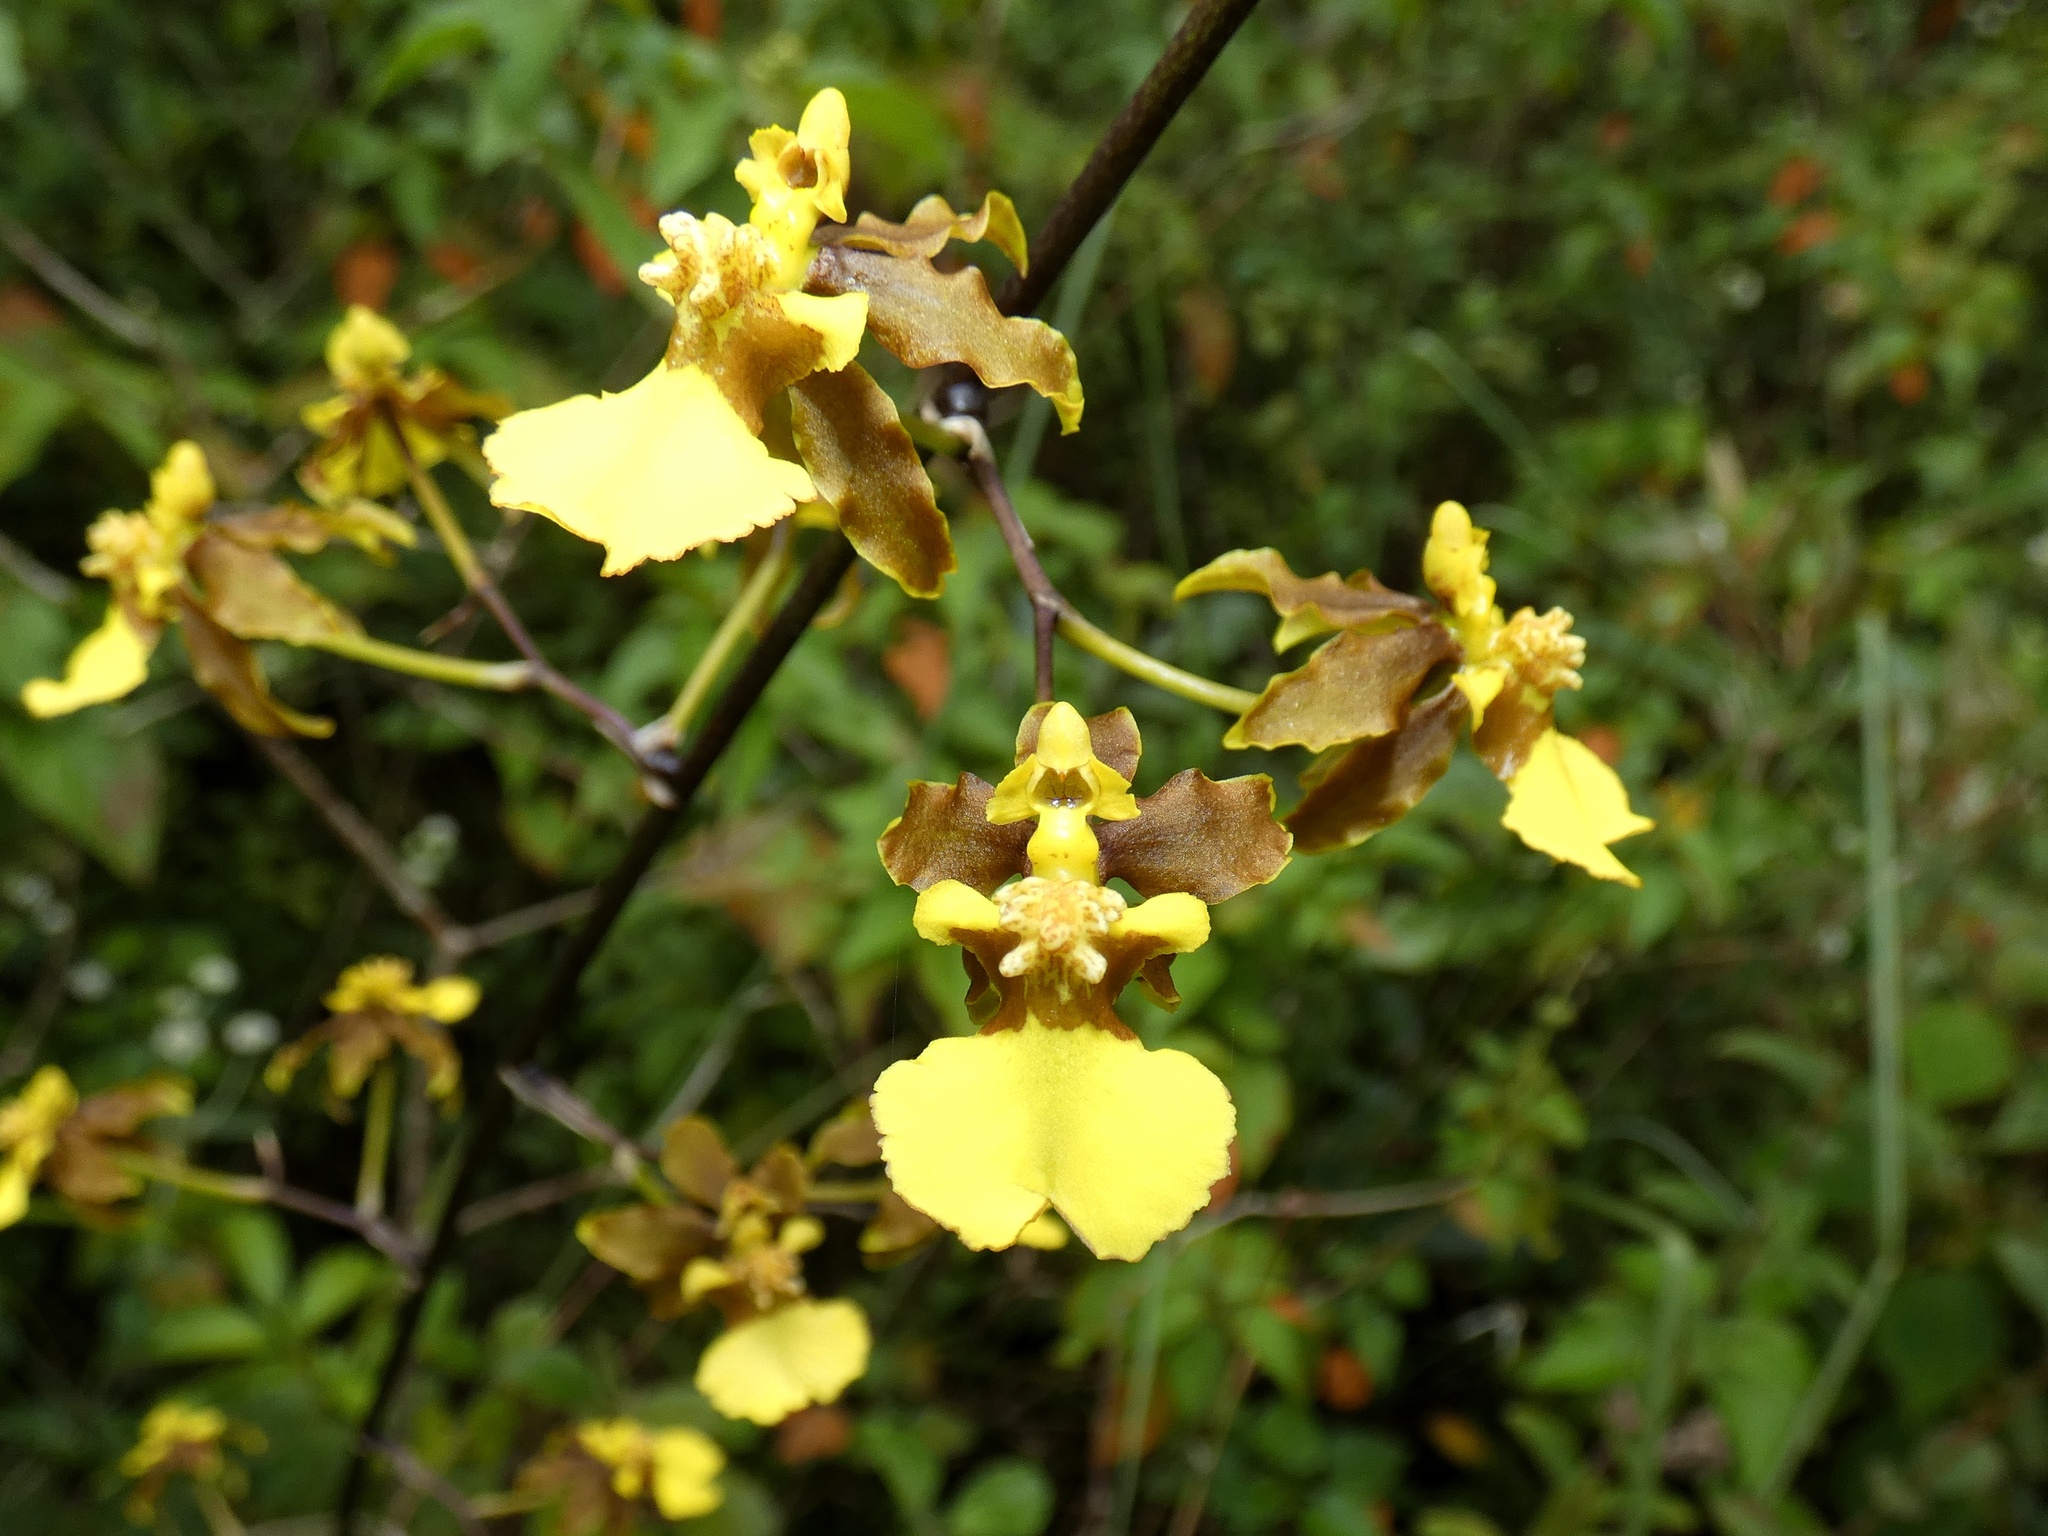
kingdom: Plantae
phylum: Tracheophyta
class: Liliopsida
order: Asparagales
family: Orchidaceae
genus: Oncidium
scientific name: Oncidium ensatum
